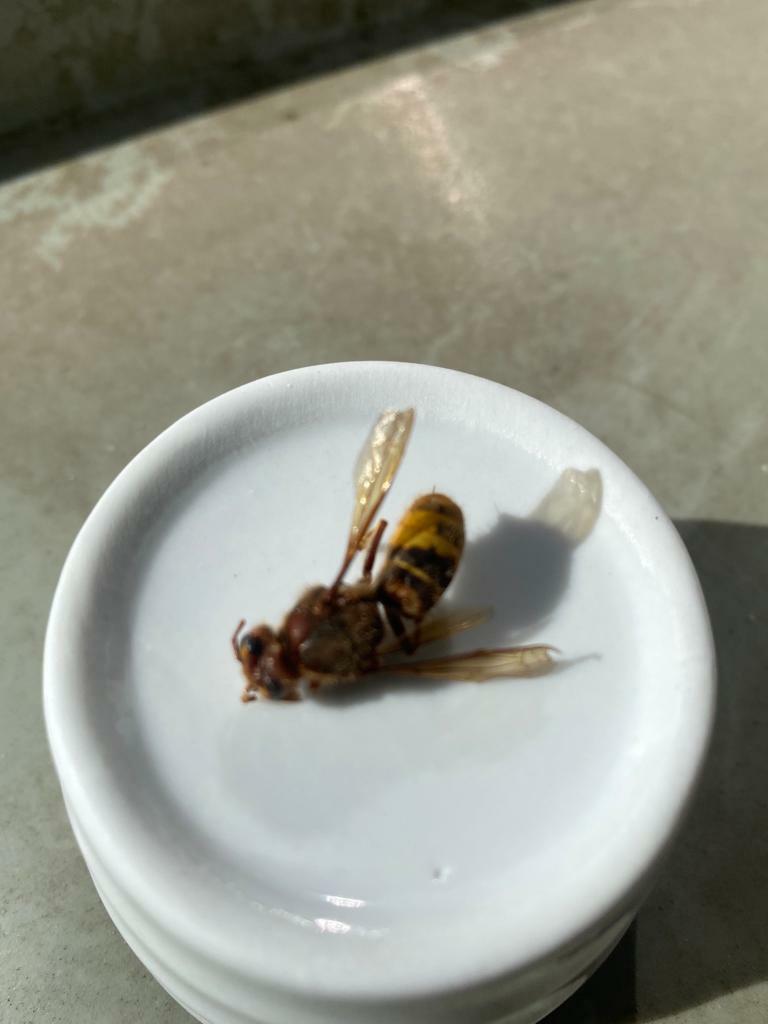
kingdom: Animalia
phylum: Arthropoda
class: Insecta
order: Hymenoptera
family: Vespidae
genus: Vespa
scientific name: Vespa crabro
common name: Hornet
